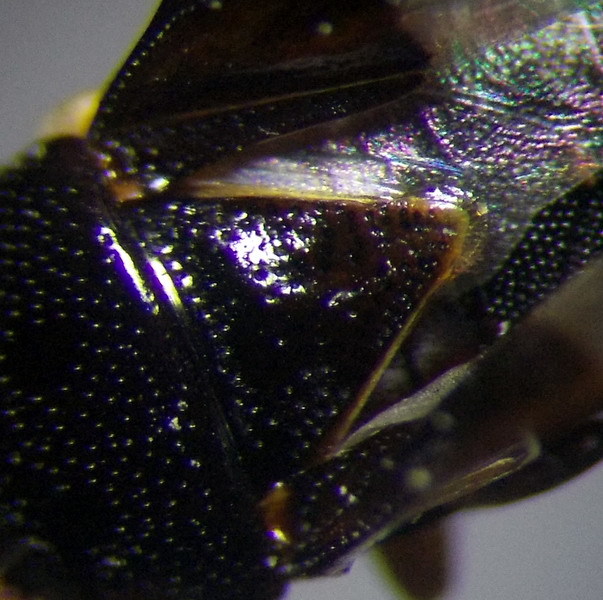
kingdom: Animalia
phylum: Arthropoda
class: Insecta
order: Hemiptera
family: Geocoridae
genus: Geocoris
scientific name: Geocoris erythrocephala
